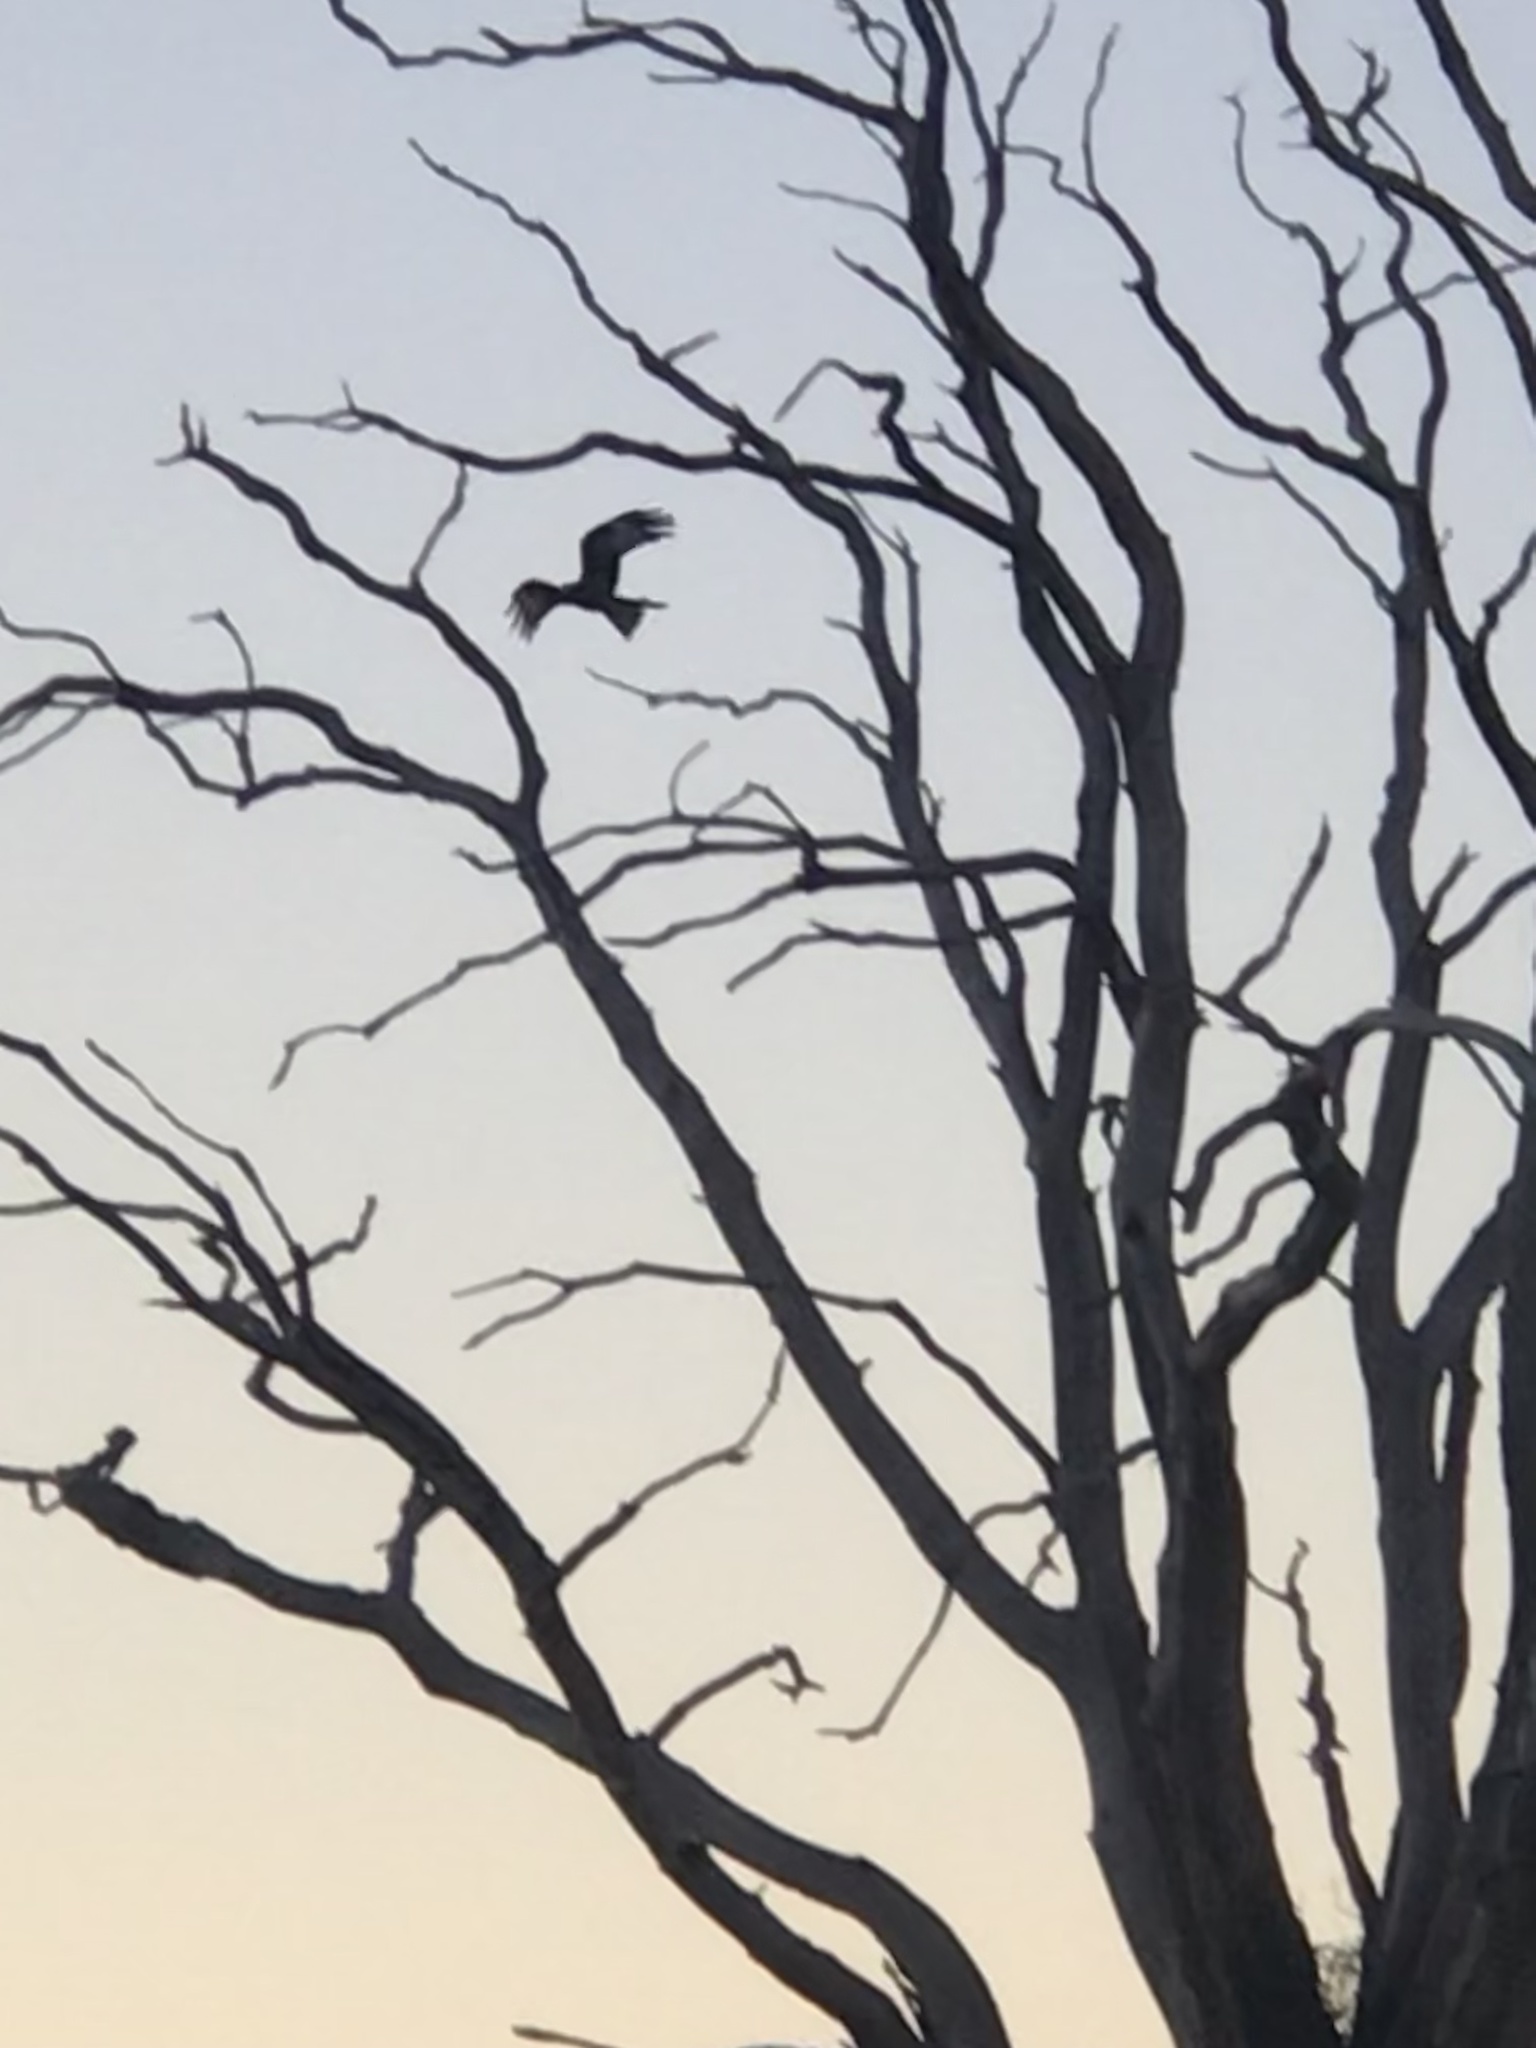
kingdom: Animalia
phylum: Chordata
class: Aves
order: Accipitriformes
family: Accipitridae
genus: Milvus
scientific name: Milvus milvus
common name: Red kite
